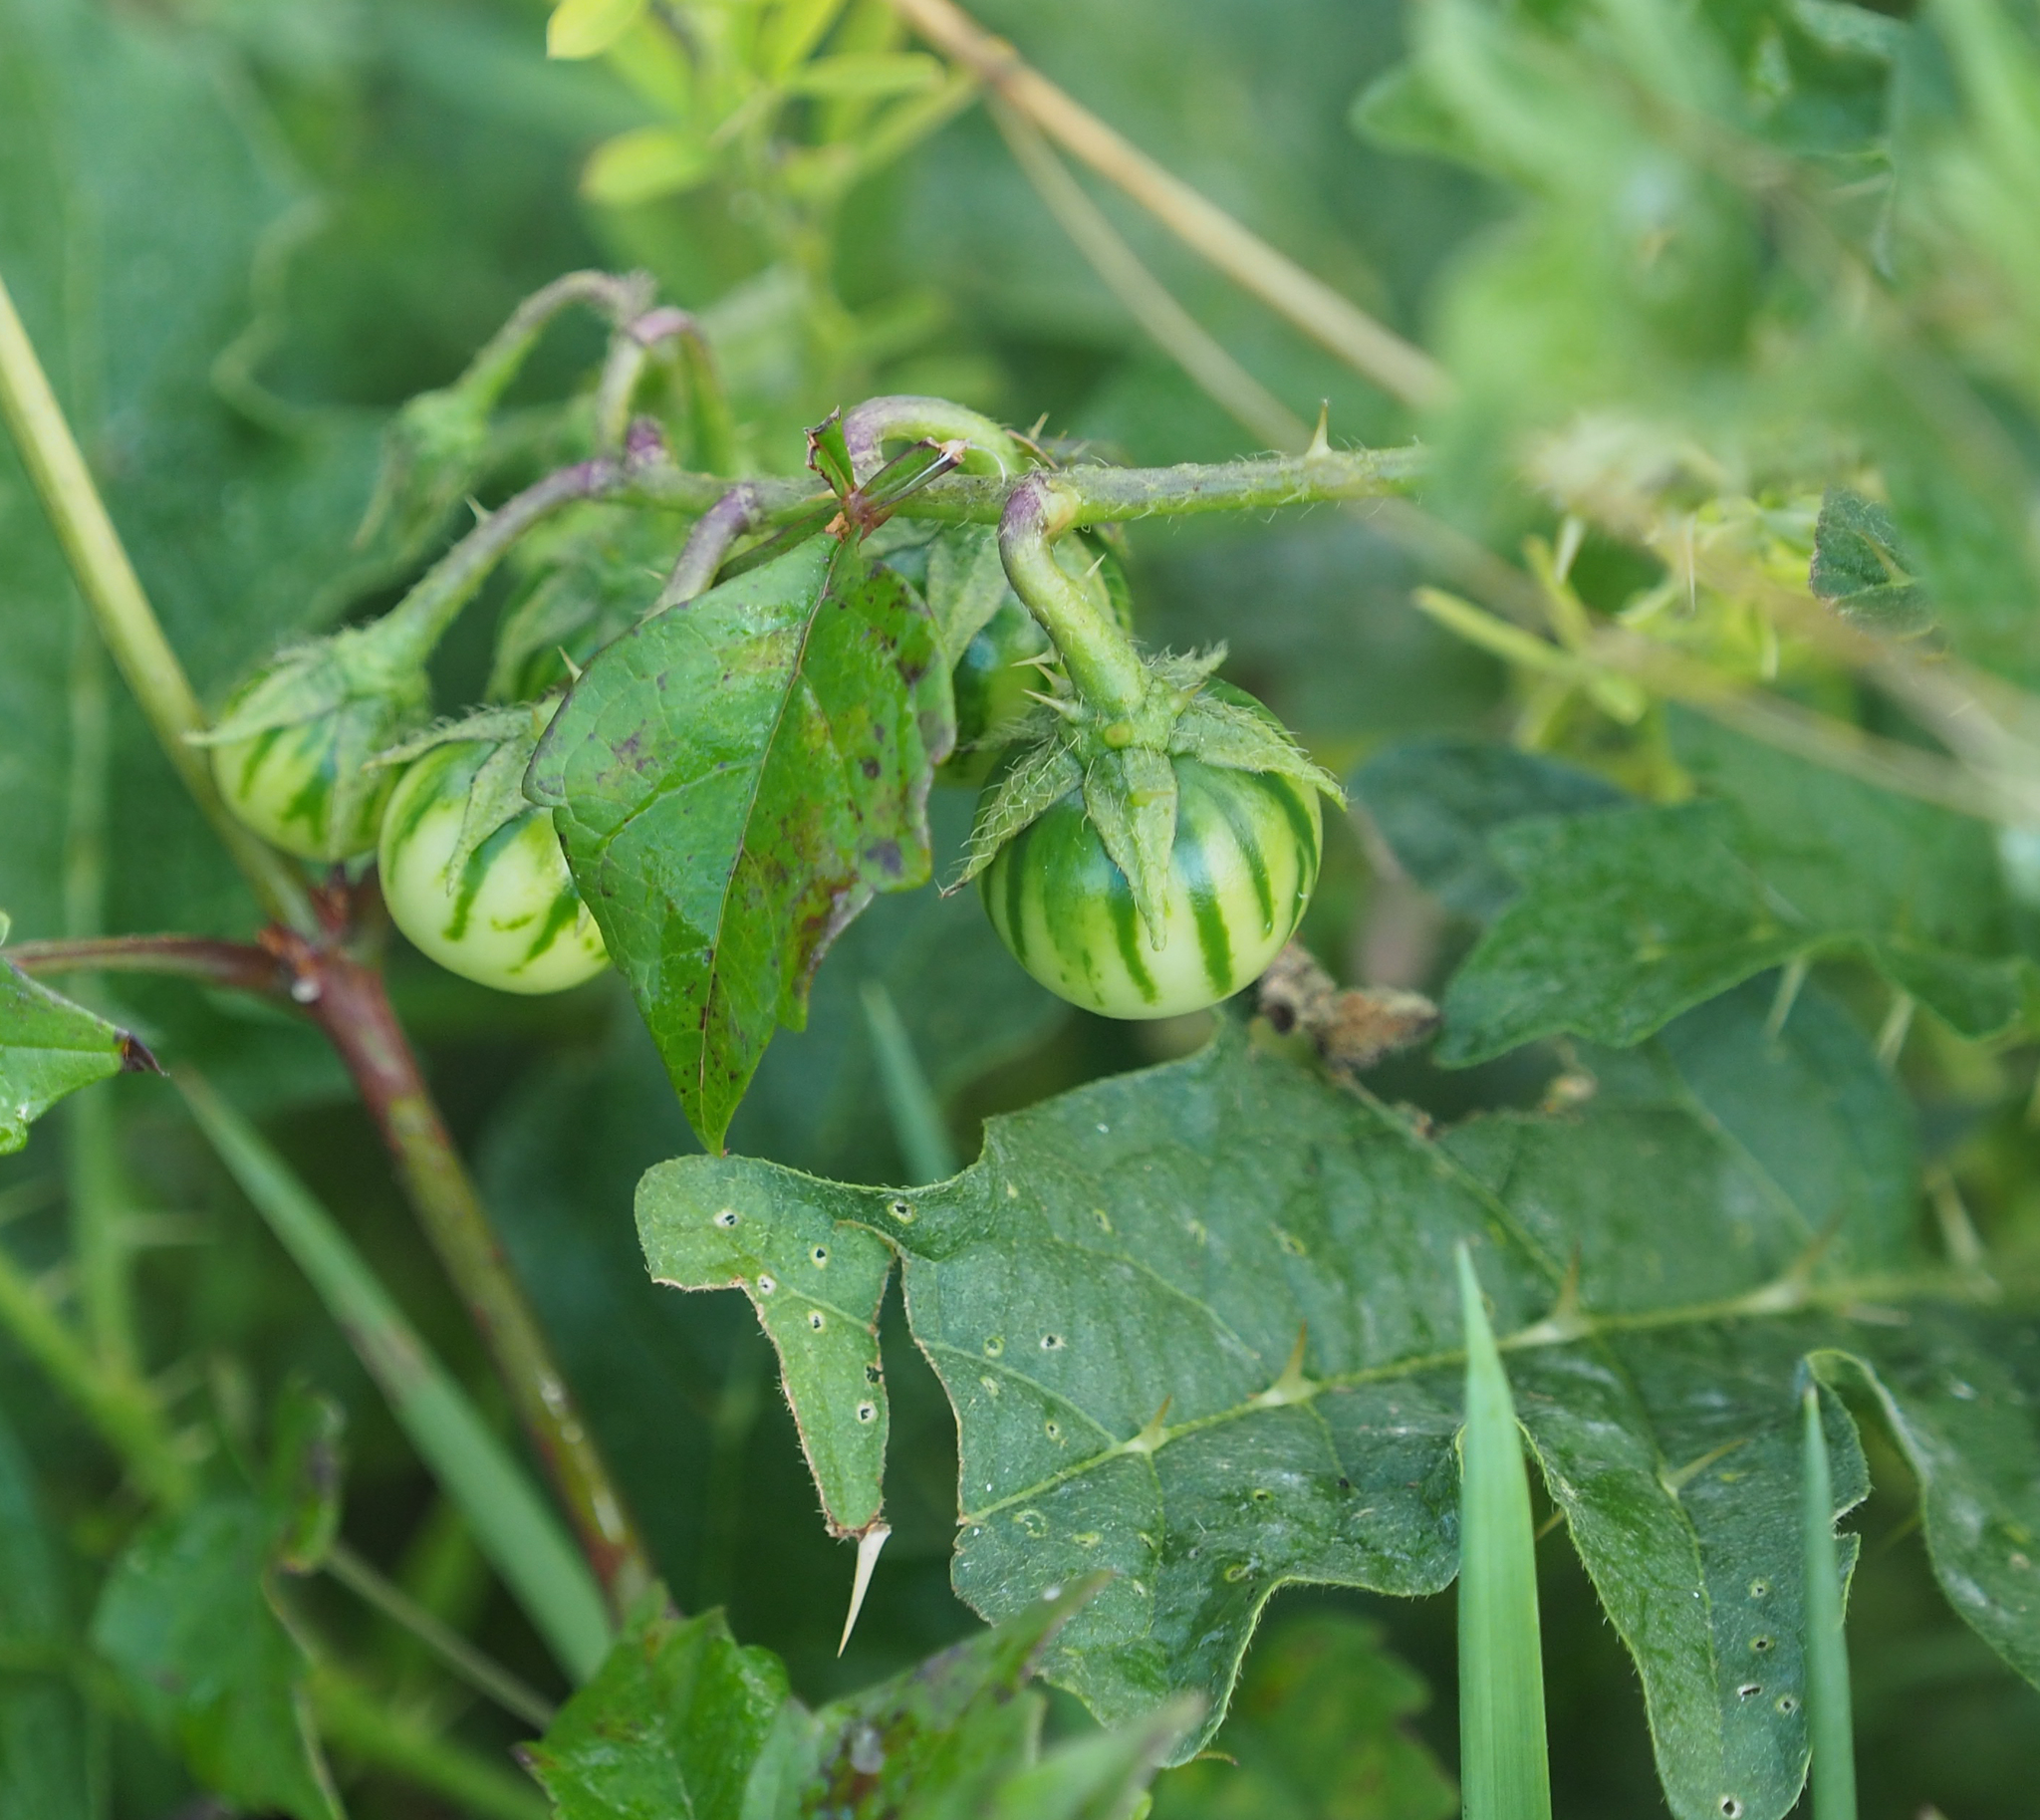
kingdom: Plantae
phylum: Tracheophyta
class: Magnoliopsida
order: Solanales
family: Solanaceae
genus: Solanum
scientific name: Solanum carolinense
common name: Horse-nettle
